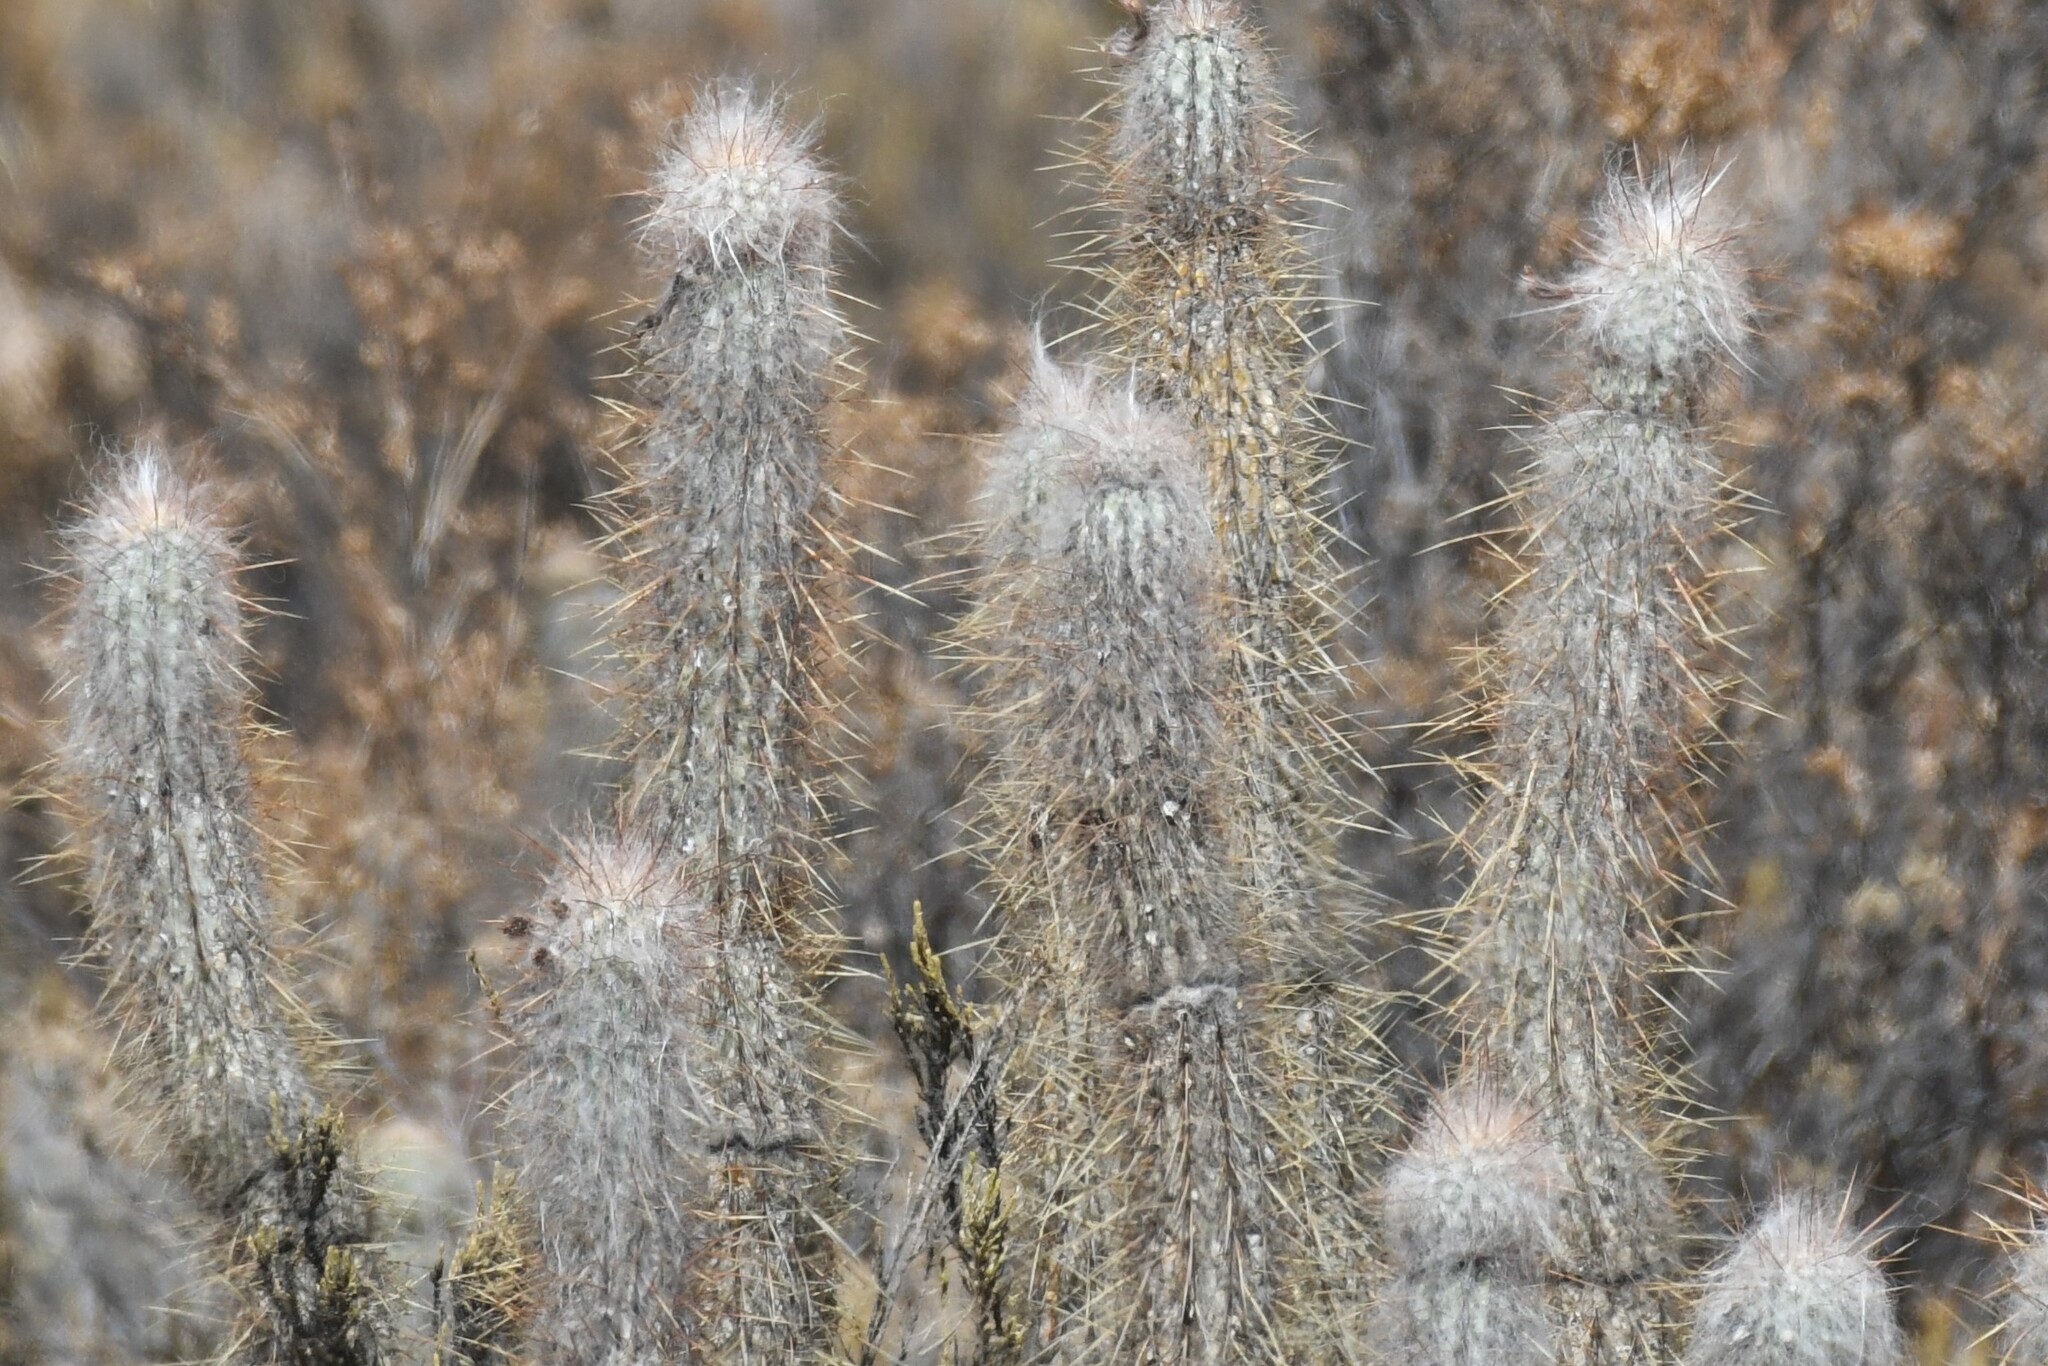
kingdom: Plantae
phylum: Tracheophyta
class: Magnoliopsida
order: Caryophyllales
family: Cactaceae
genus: Oreocereus
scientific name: Oreocereus leucotrichus
